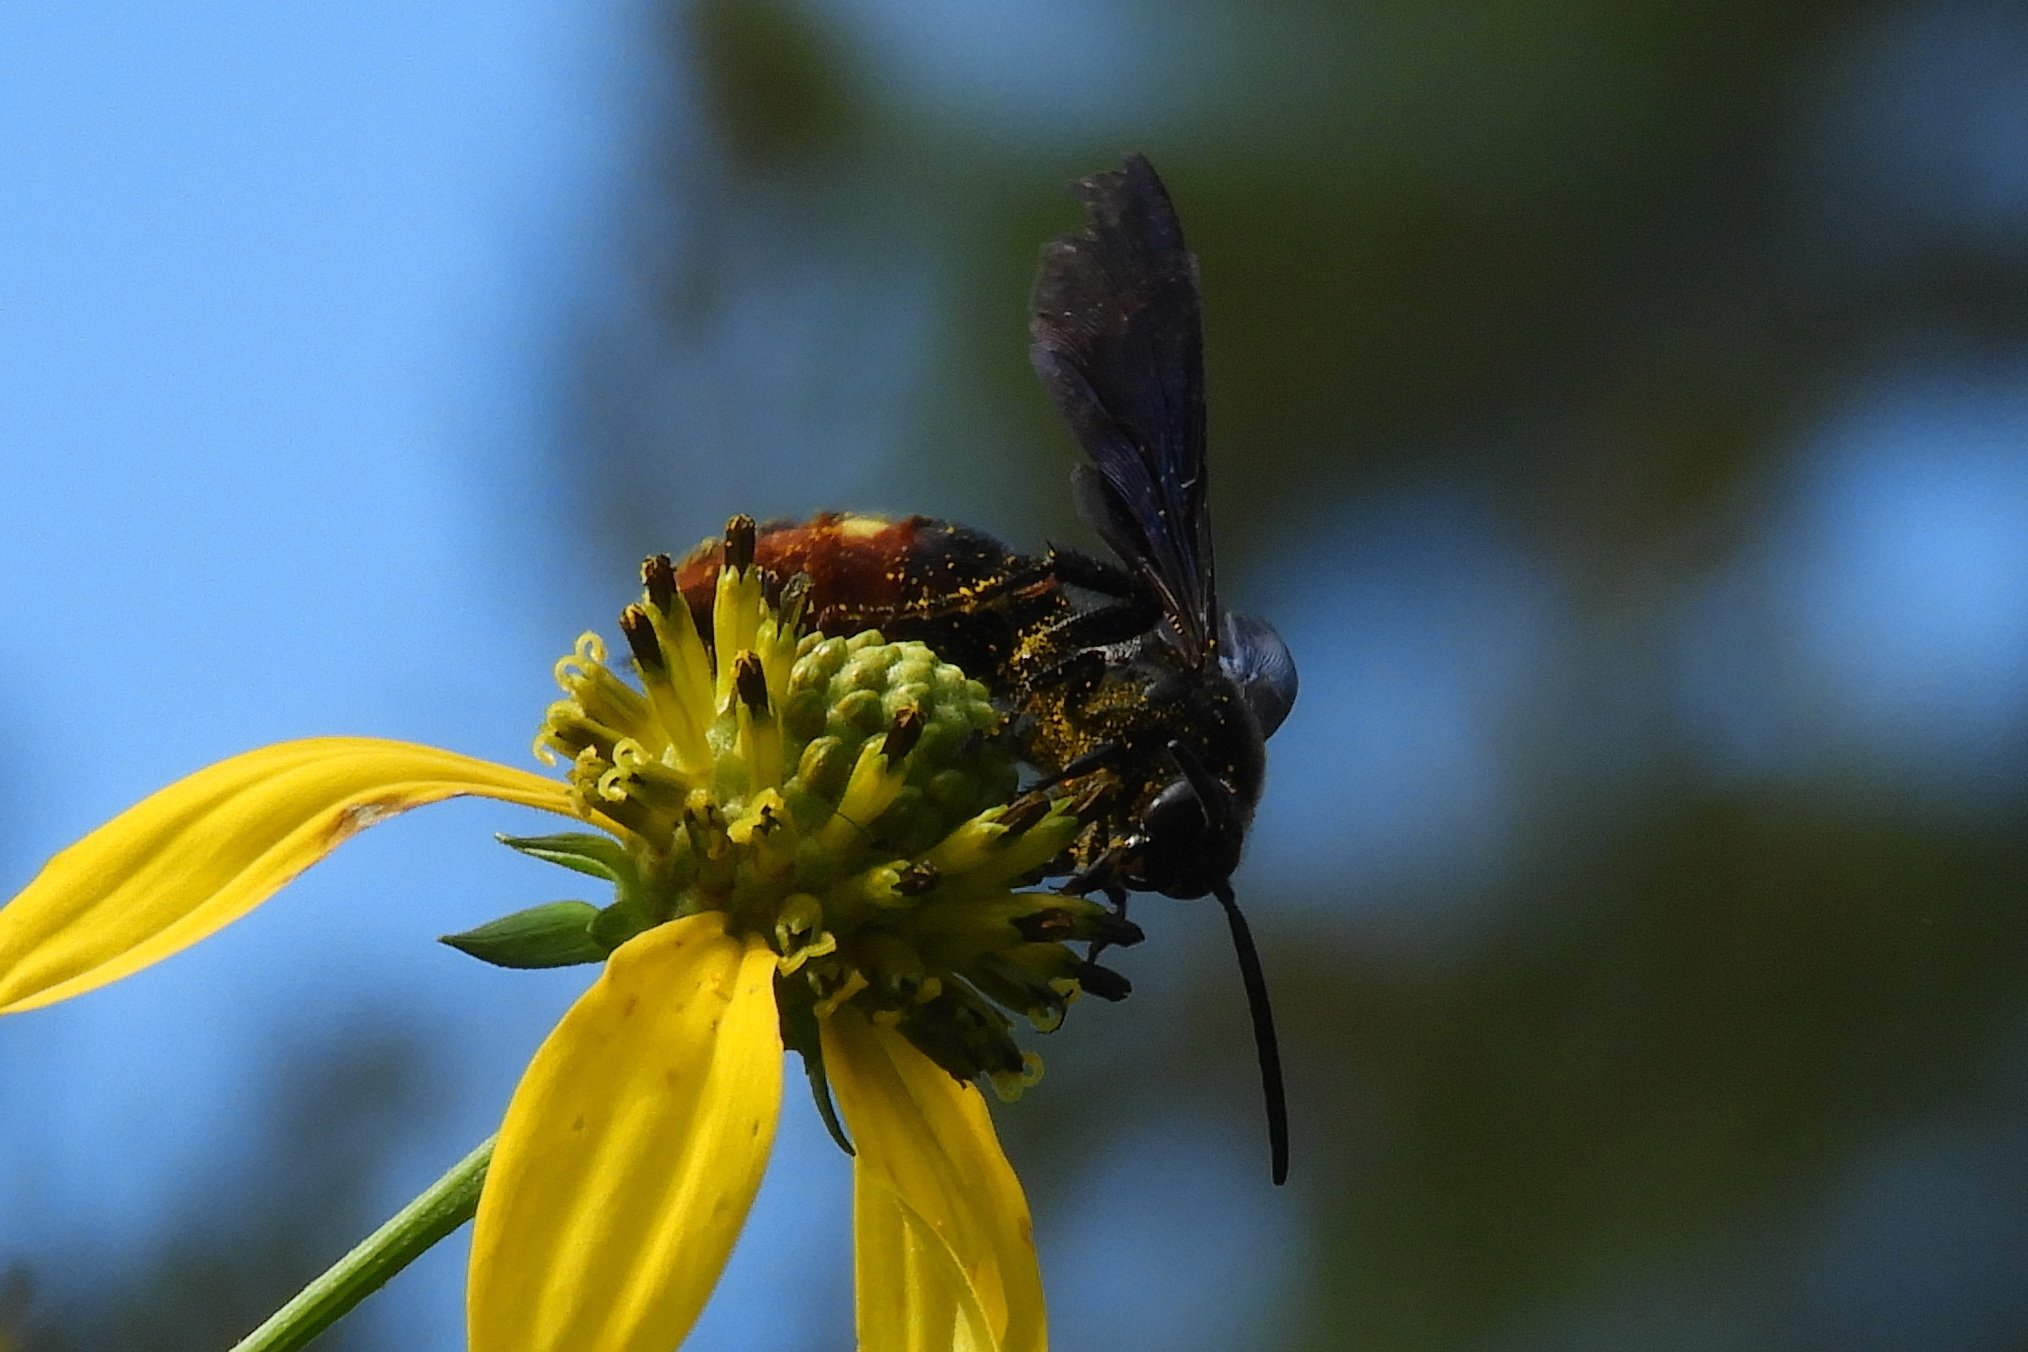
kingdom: Animalia
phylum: Arthropoda
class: Insecta
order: Hymenoptera
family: Scoliidae
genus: Scolia
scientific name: Scolia dubia
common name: Blue-winged scoliid wasp
